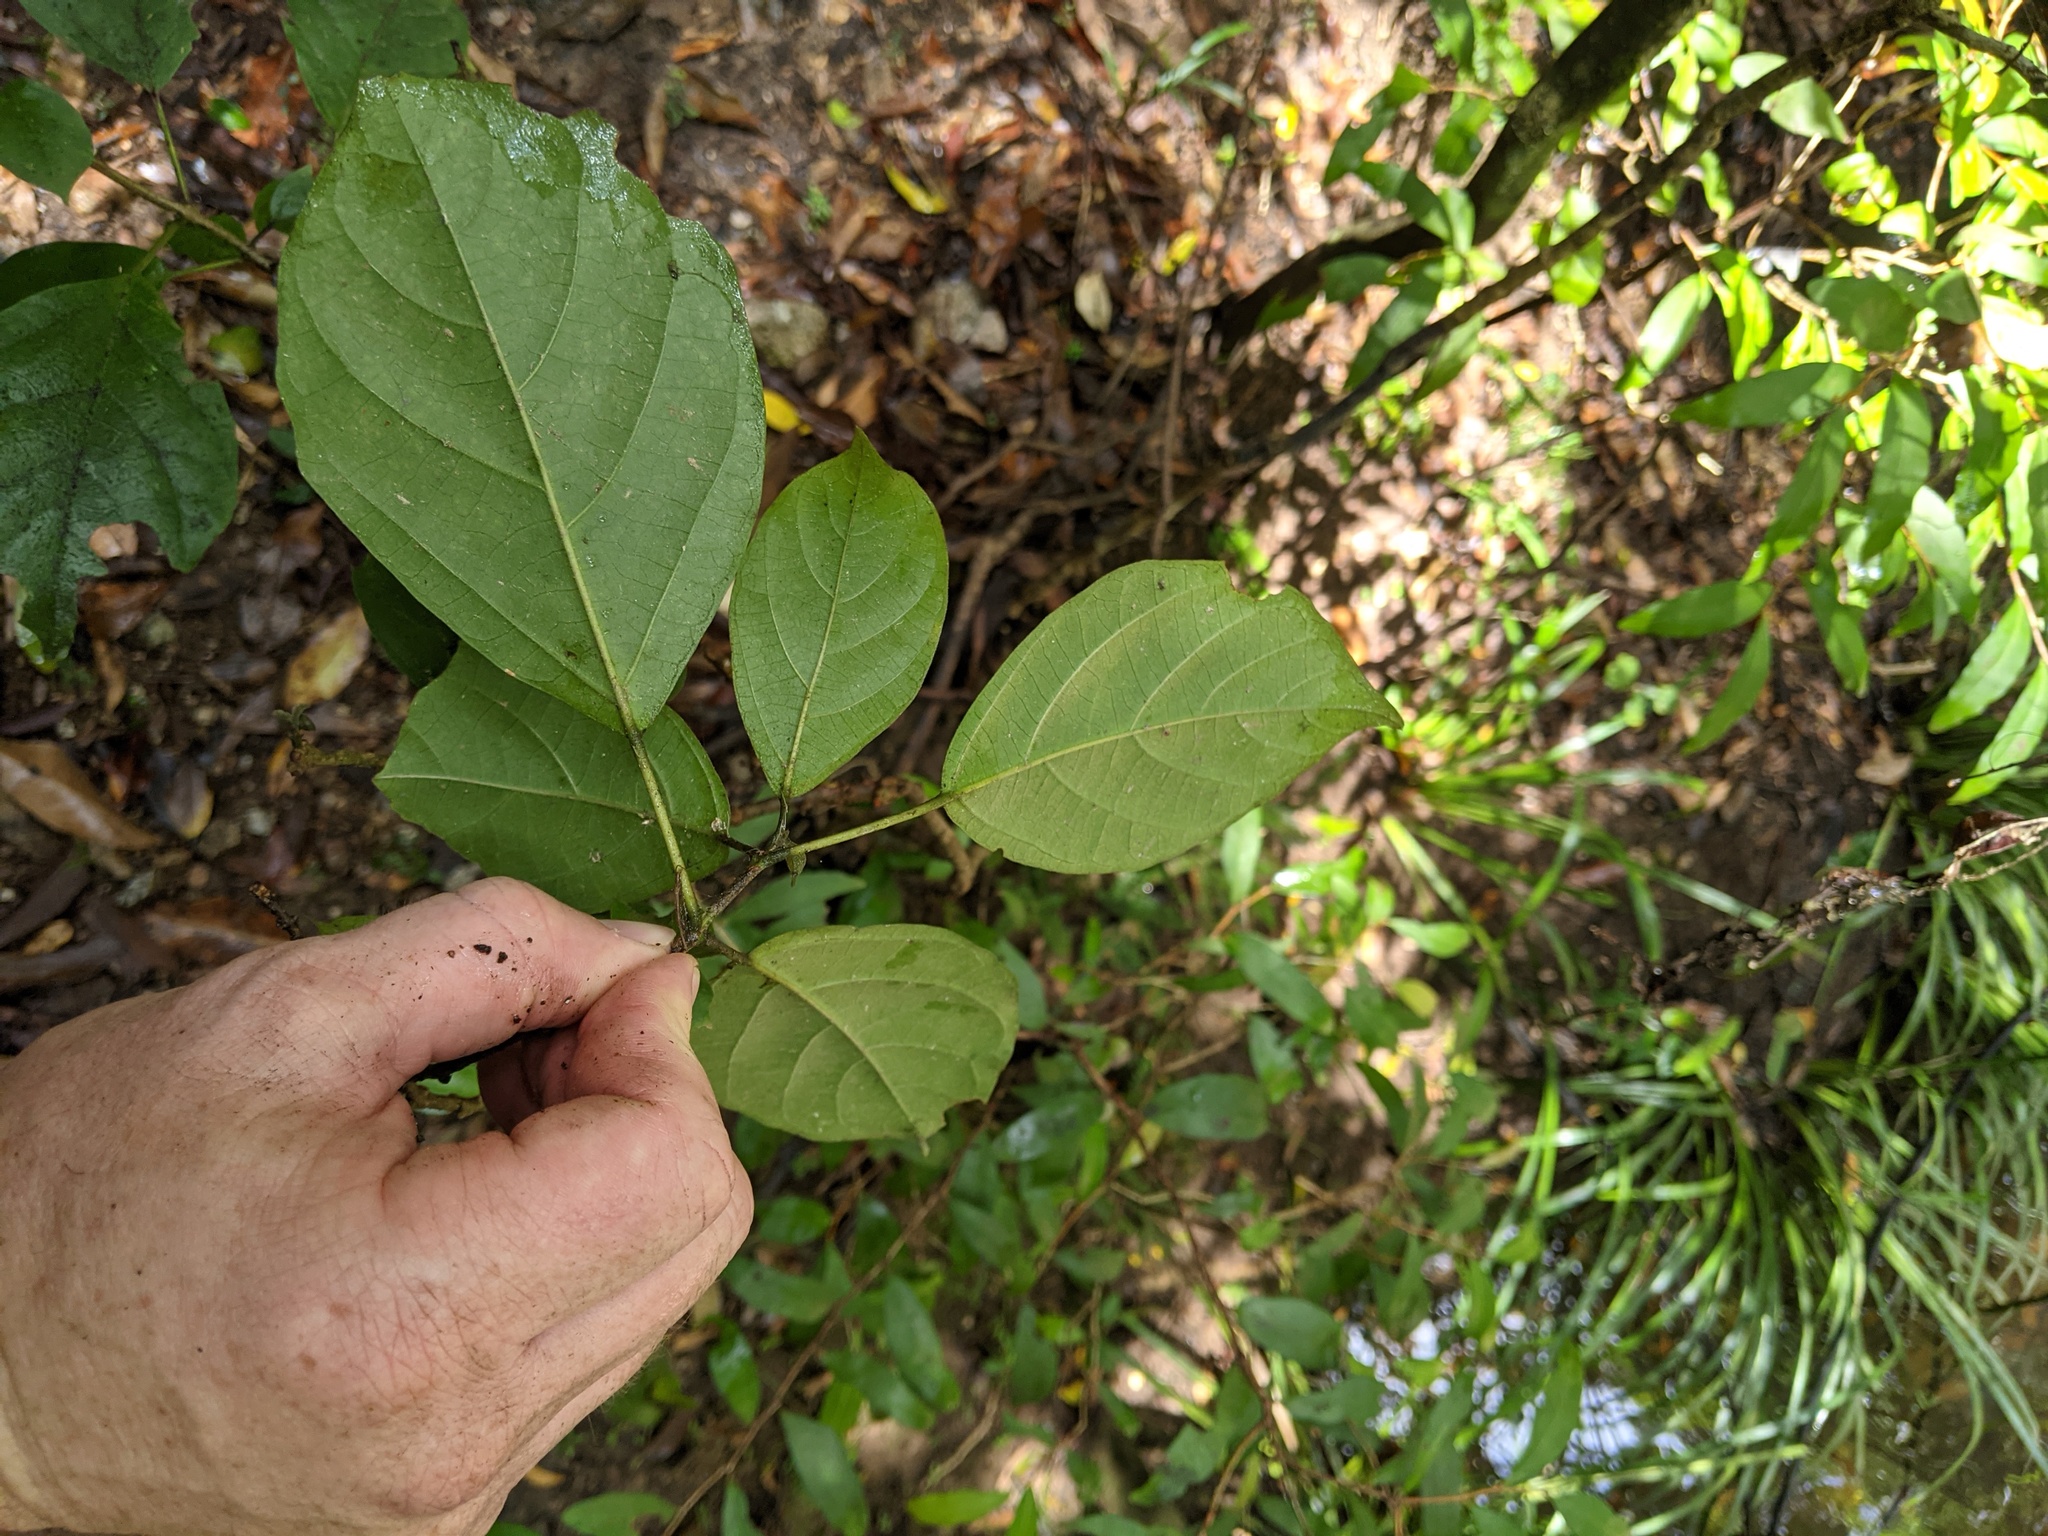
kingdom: Plantae
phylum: Tracheophyta
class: Magnoliopsida
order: Lamiales
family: Lamiaceae
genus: Clerodendrum
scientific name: Clerodendrum tomentosum
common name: Hairy clerodendrum
